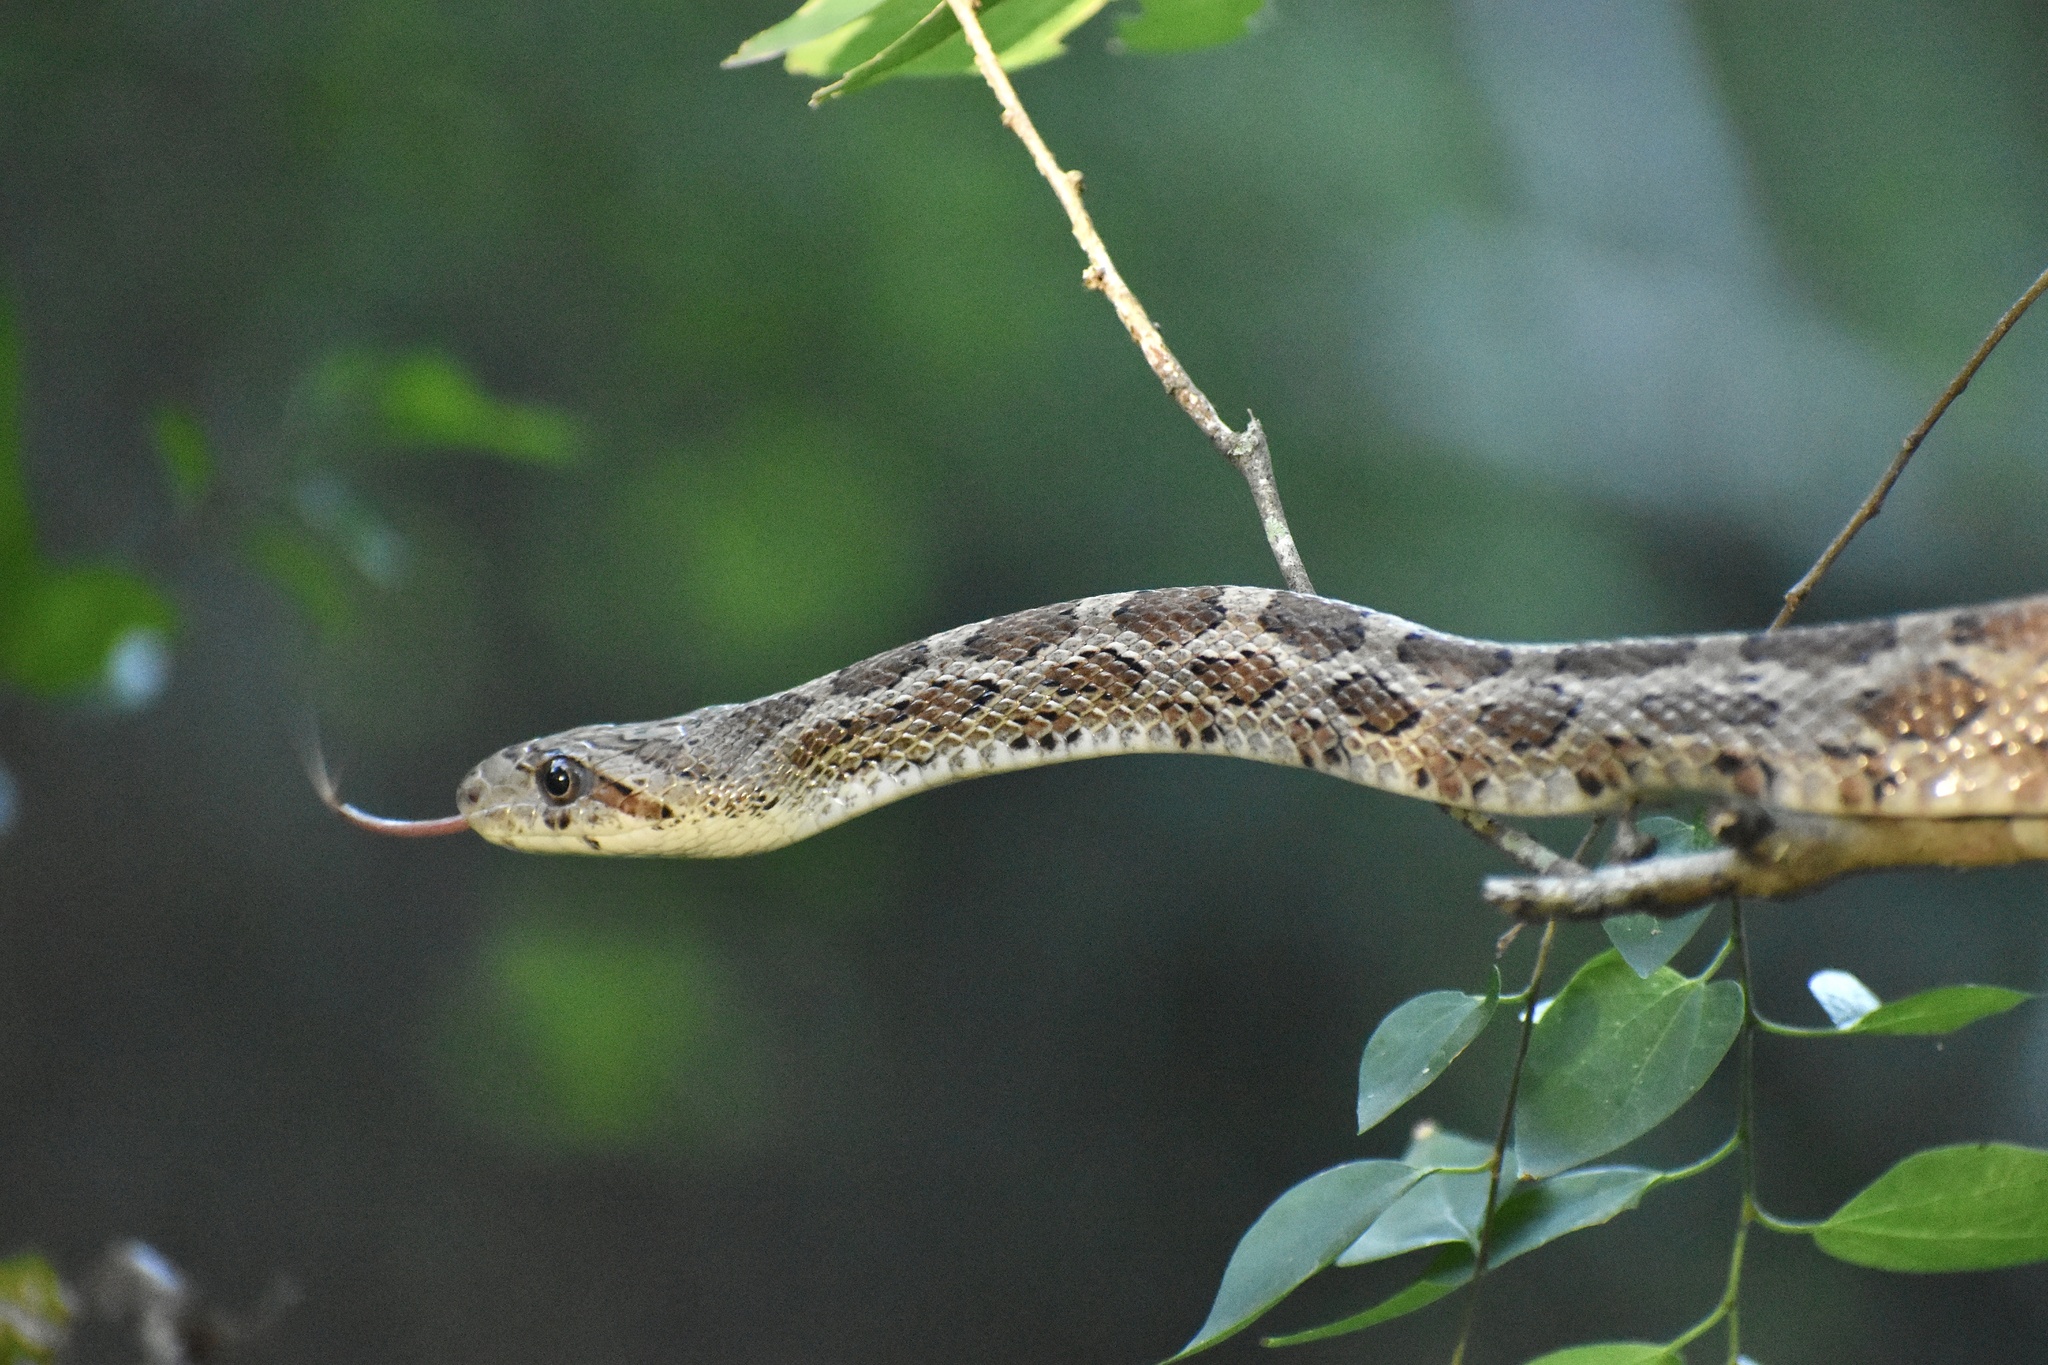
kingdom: Animalia
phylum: Chordata
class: Squamata
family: Colubridae
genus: Pantherophis
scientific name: Pantherophis emoryi
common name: Great plains rat snake
